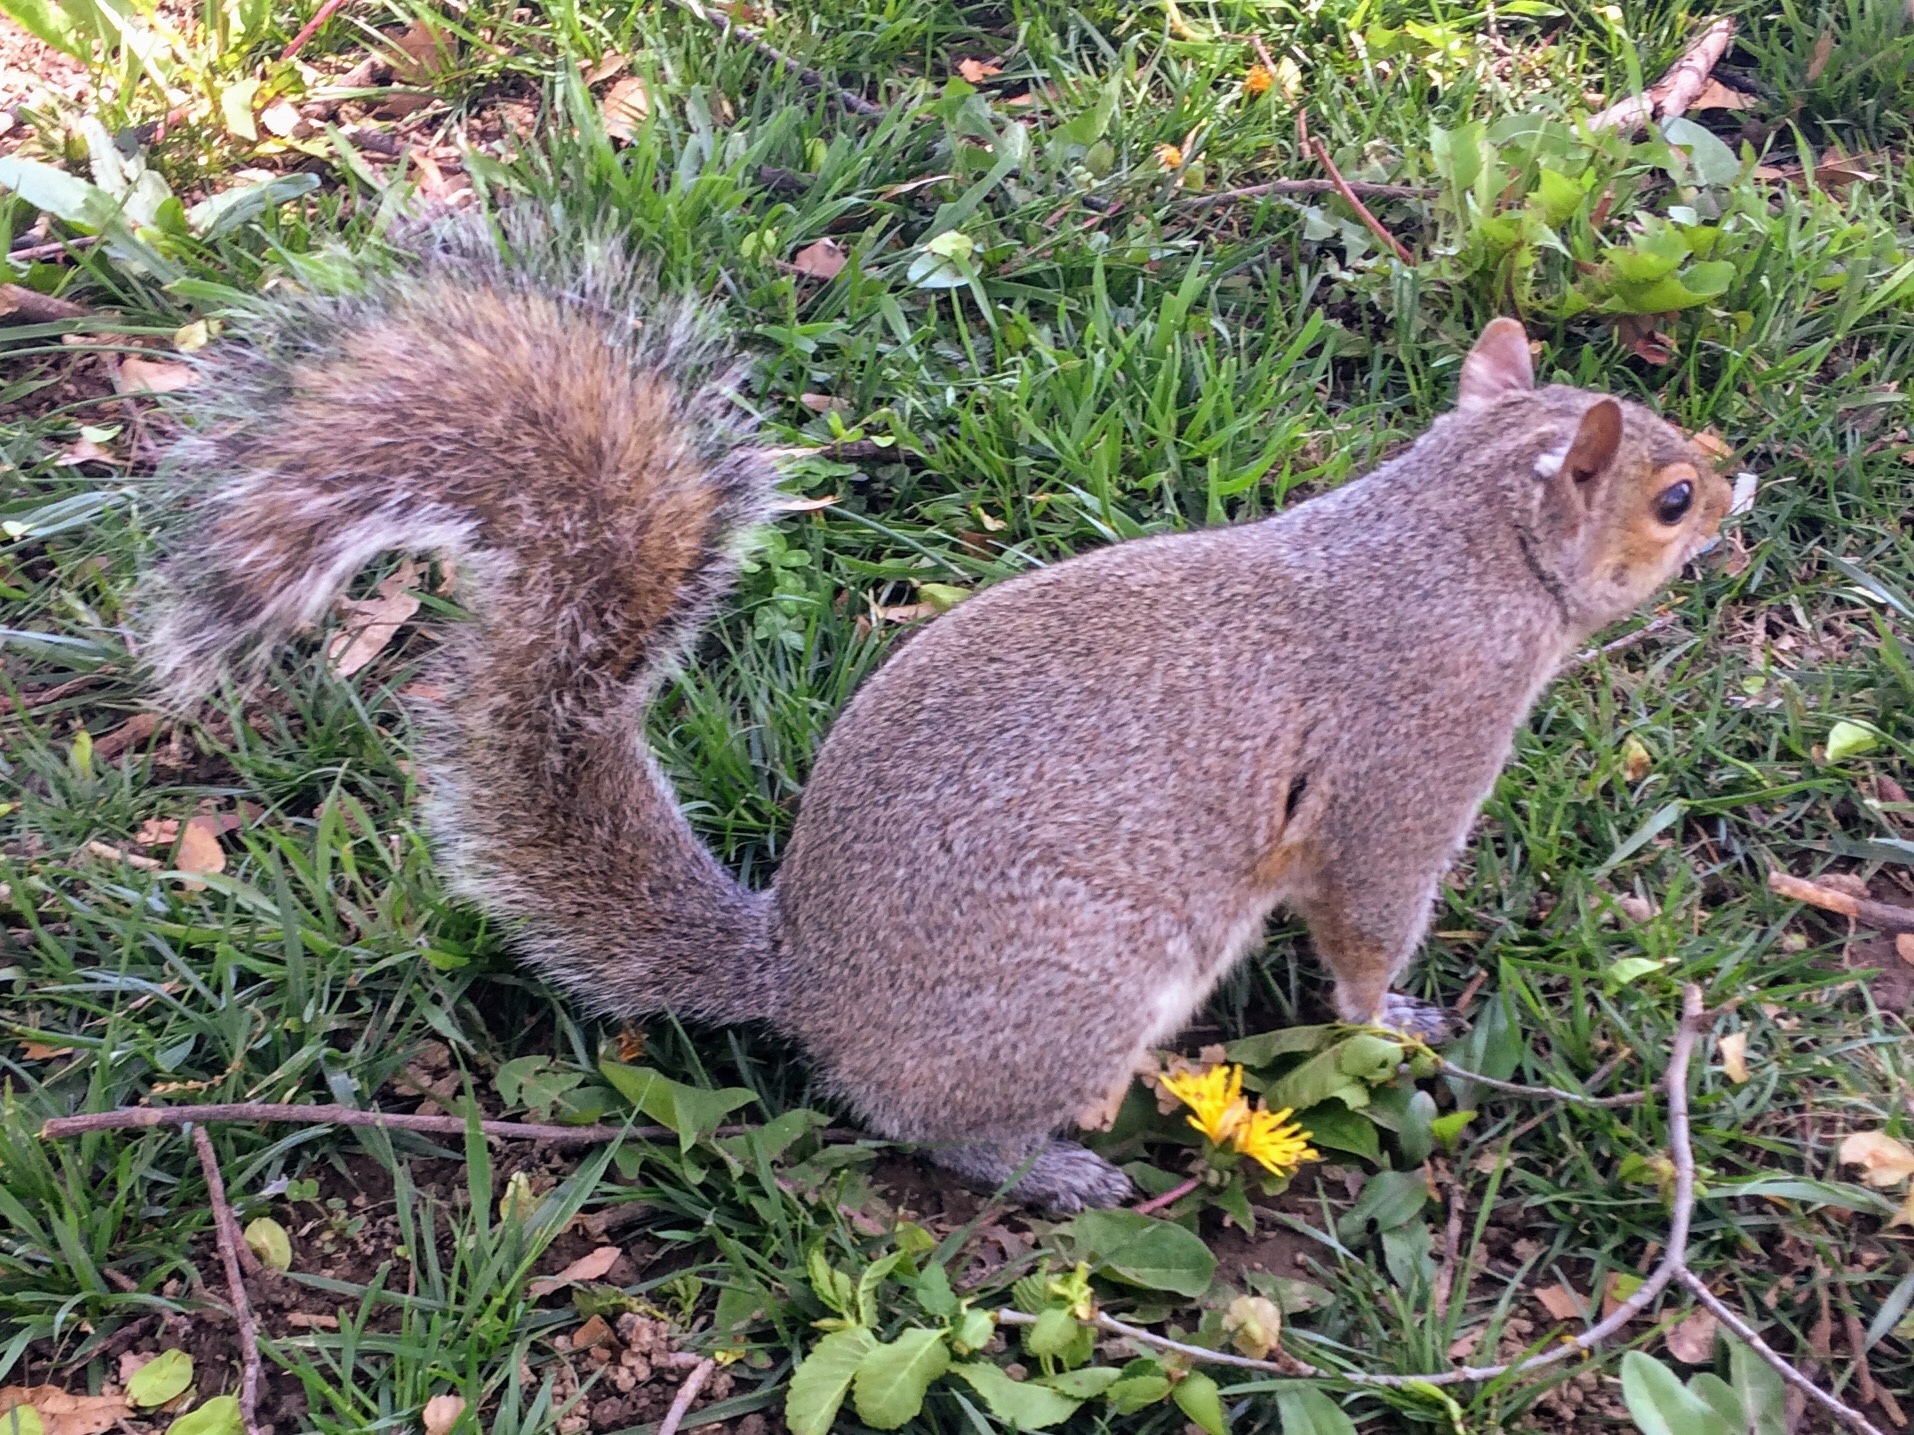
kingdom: Animalia
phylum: Chordata
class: Mammalia
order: Rodentia
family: Sciuridae
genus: Sciurus
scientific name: Sciurus carolinensis
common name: Eastern gray squirrel
